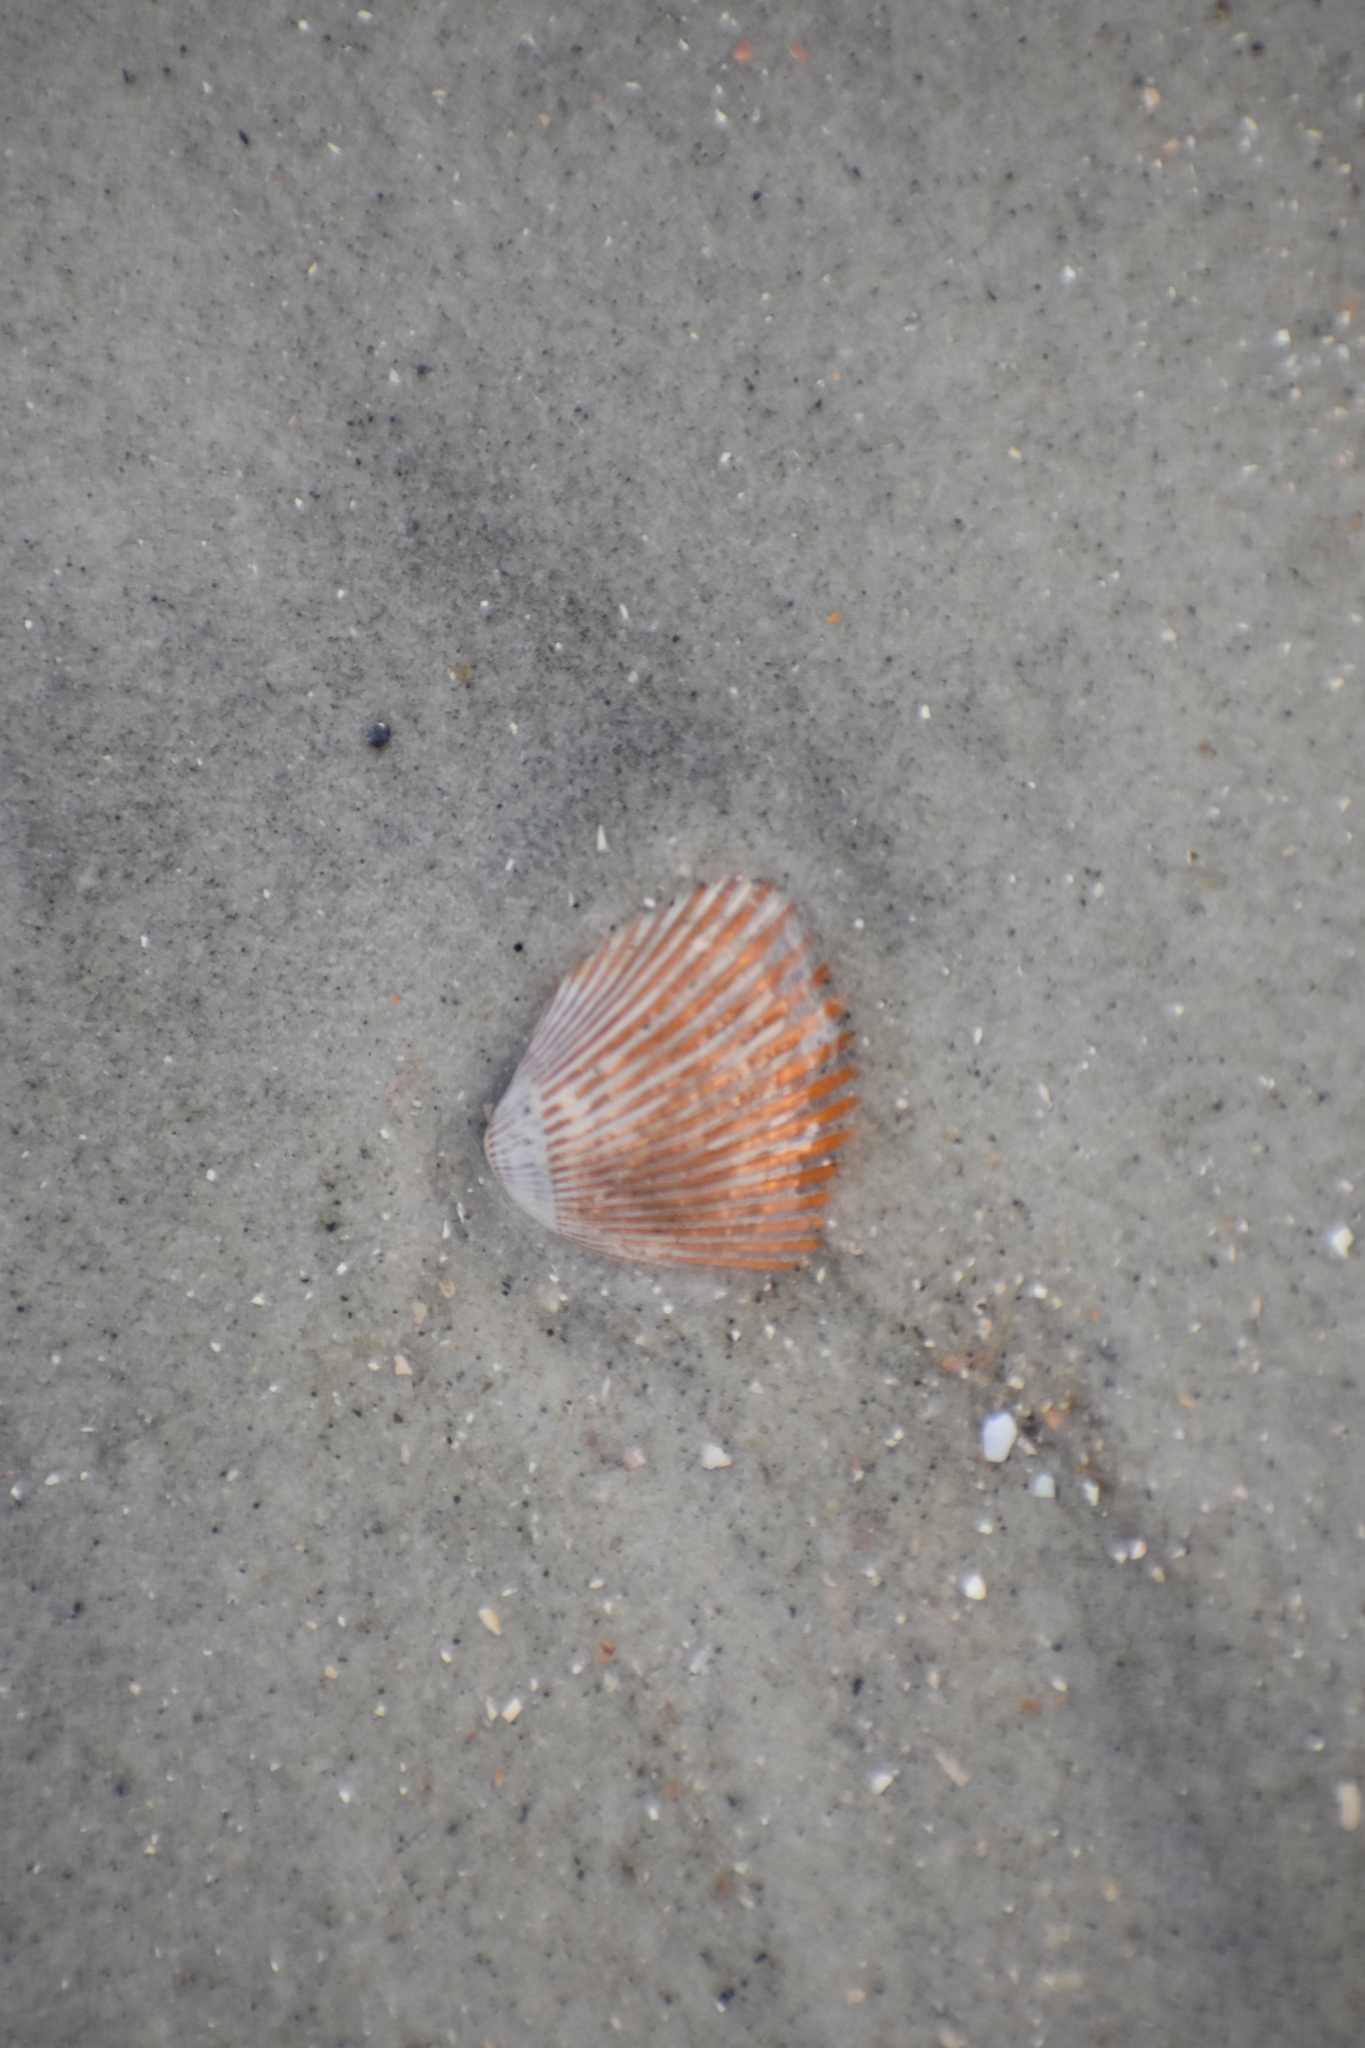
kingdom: Animalia
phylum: Mollusca
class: Bivalvia
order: Arcida
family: Noetiidae
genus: Noetia
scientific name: Noetia ponderosa
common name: Ponderous ark
